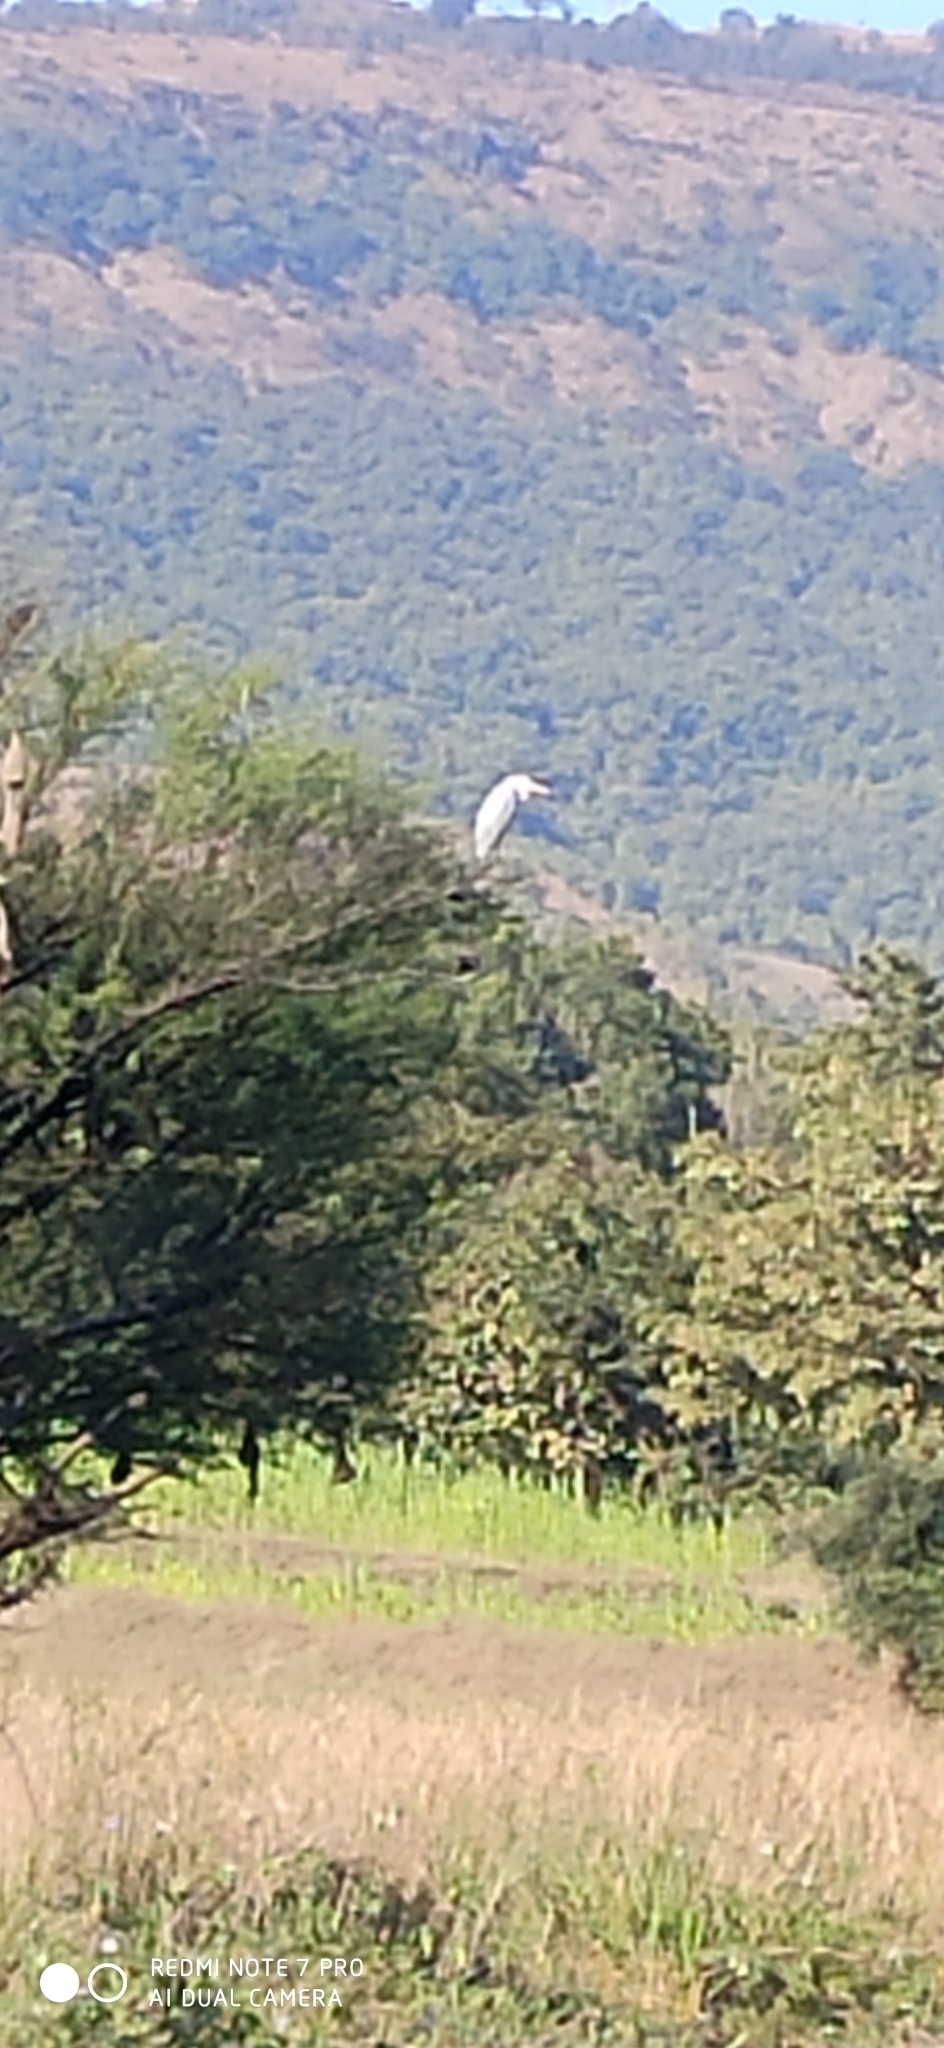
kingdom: Animalia
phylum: Chordata
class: Aves
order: Pelecaniformes
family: Ardeidae
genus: Ardea
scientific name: Ardea cinerea
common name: Grey heron
